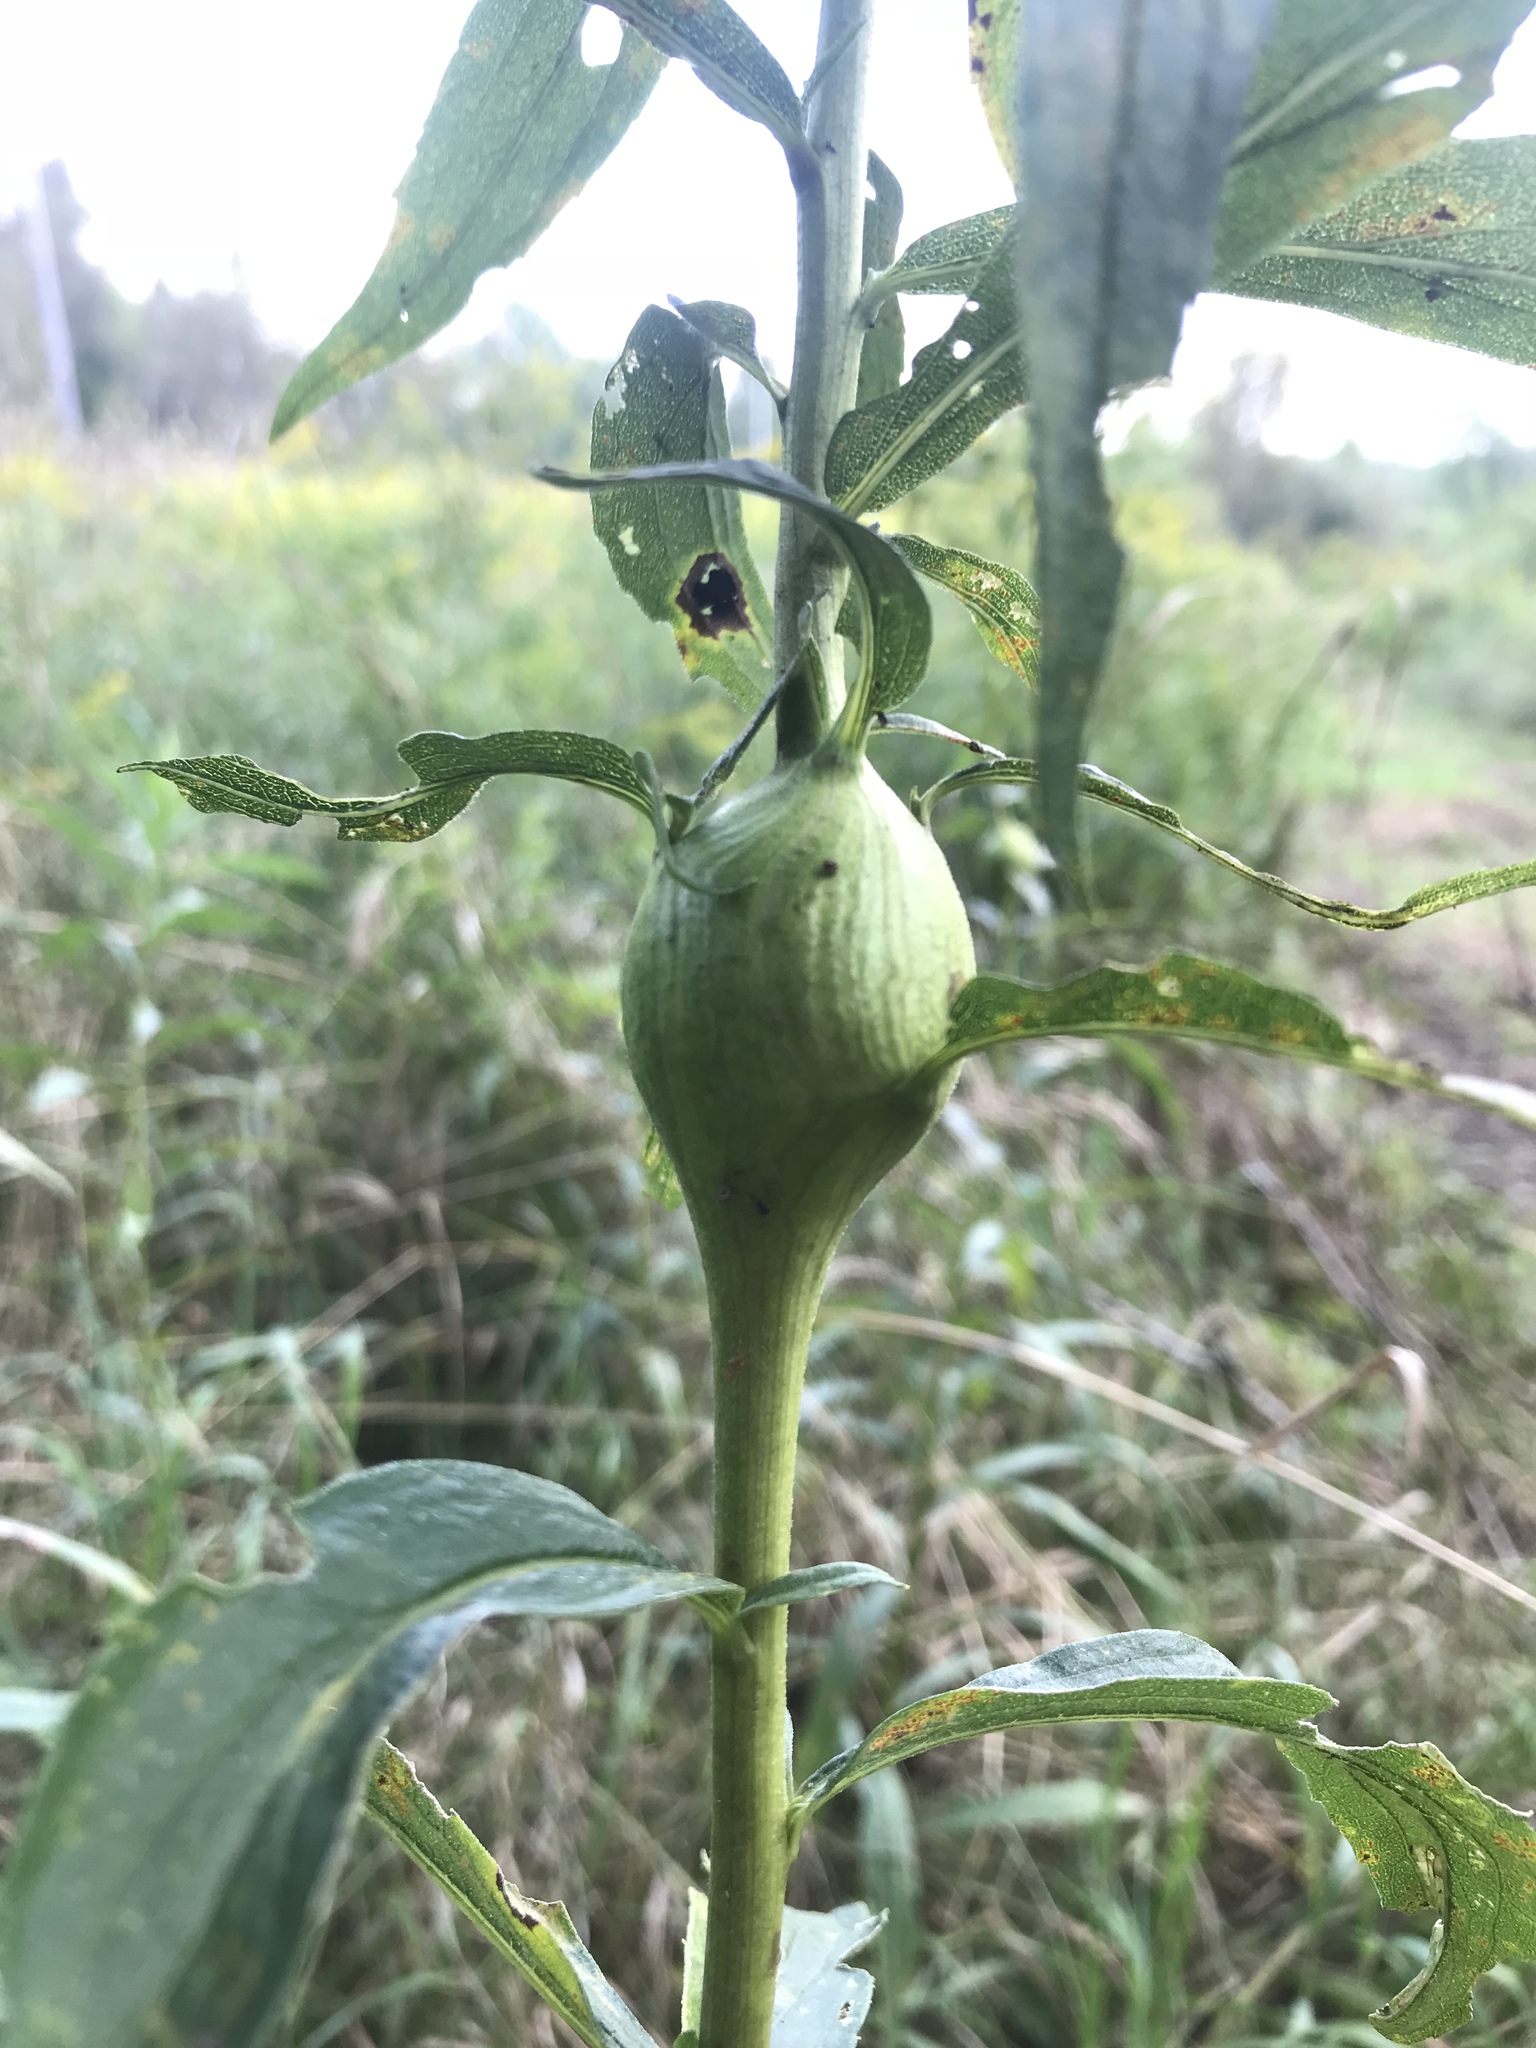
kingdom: Animalia
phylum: Arthropoda
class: Insecta
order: Diptera
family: Tephritidae
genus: Eurosta
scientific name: Eurosta solidaginis
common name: Goldenrod gall fly
